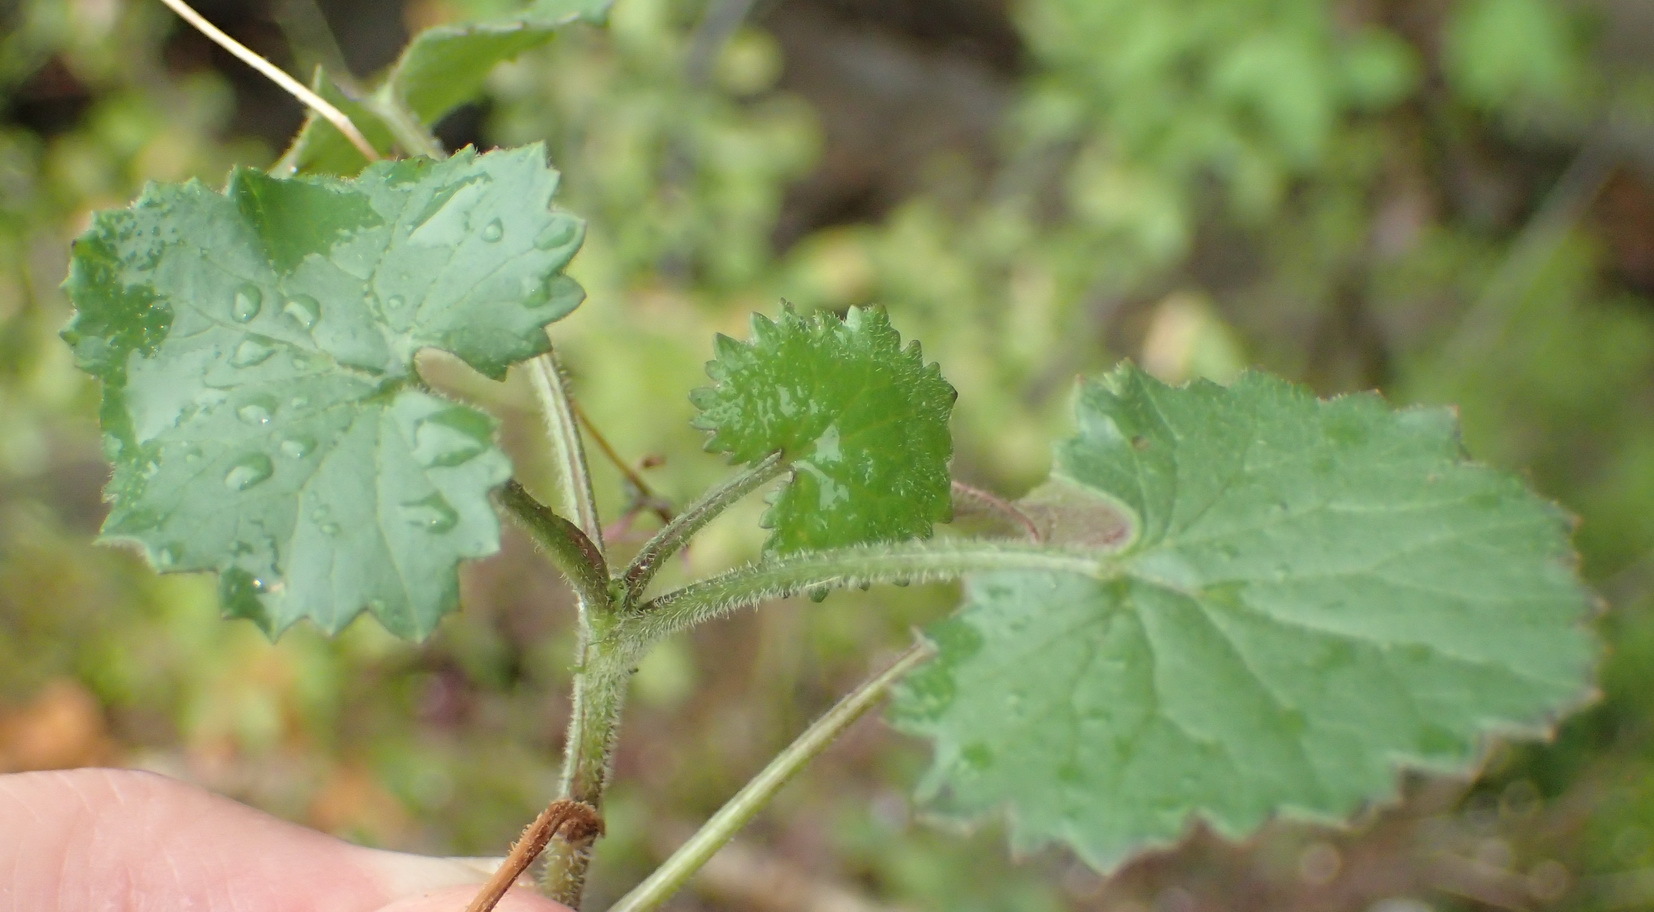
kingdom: Plantae
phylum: Tracheophyta
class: Magnoliopsida
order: Asterales
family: Asteraceae
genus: Cineraria
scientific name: Cineraria geifolia
